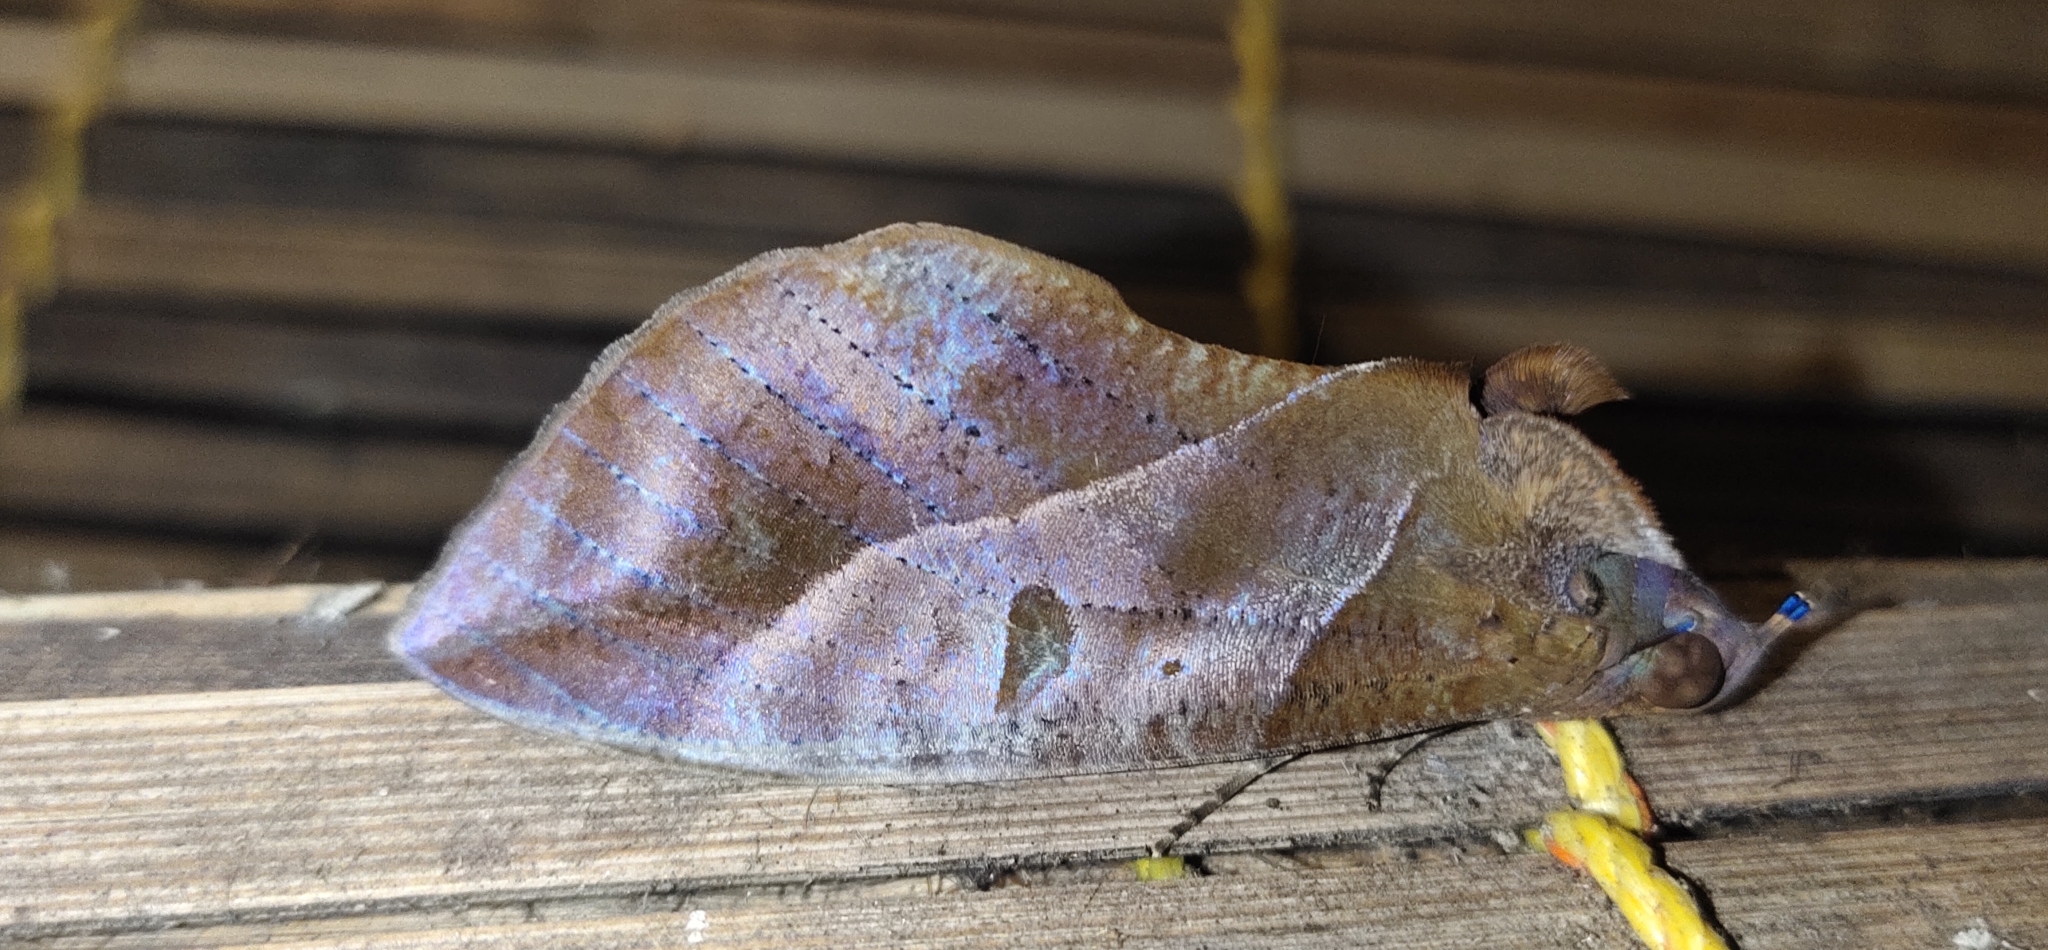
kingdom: Animalia
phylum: Arthropoda
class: Insecta
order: Lepidoptera
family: Erebidae
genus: Eudocima
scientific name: Eudocima phalonia
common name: Wasp
